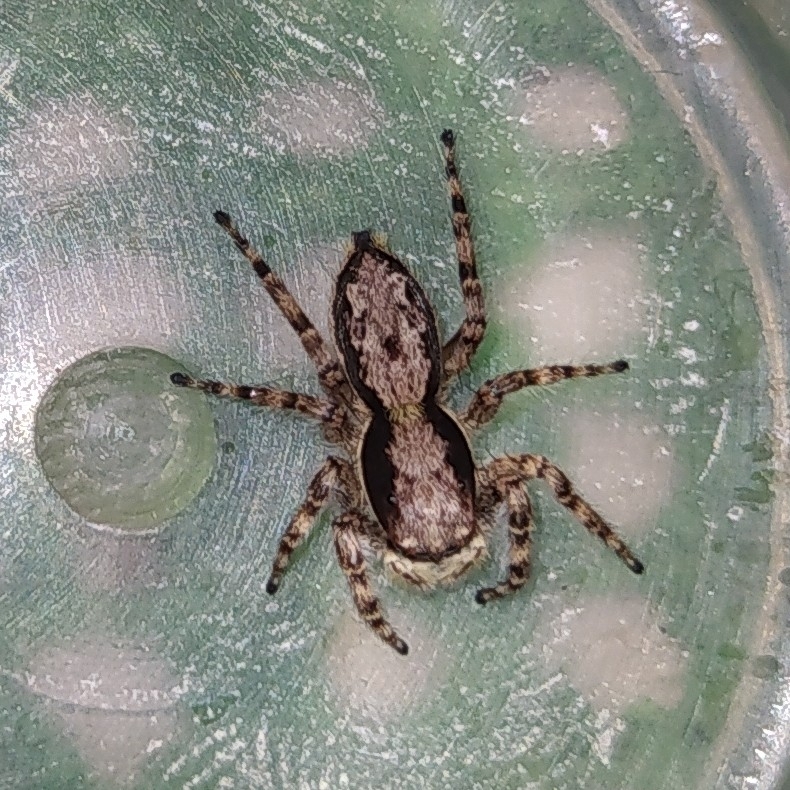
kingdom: Animalia
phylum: Arthropoda
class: Arachnida
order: Araneae
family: Salticidae
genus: Menemerus
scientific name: Menemerus bivittatus
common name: Gray wall jumper
